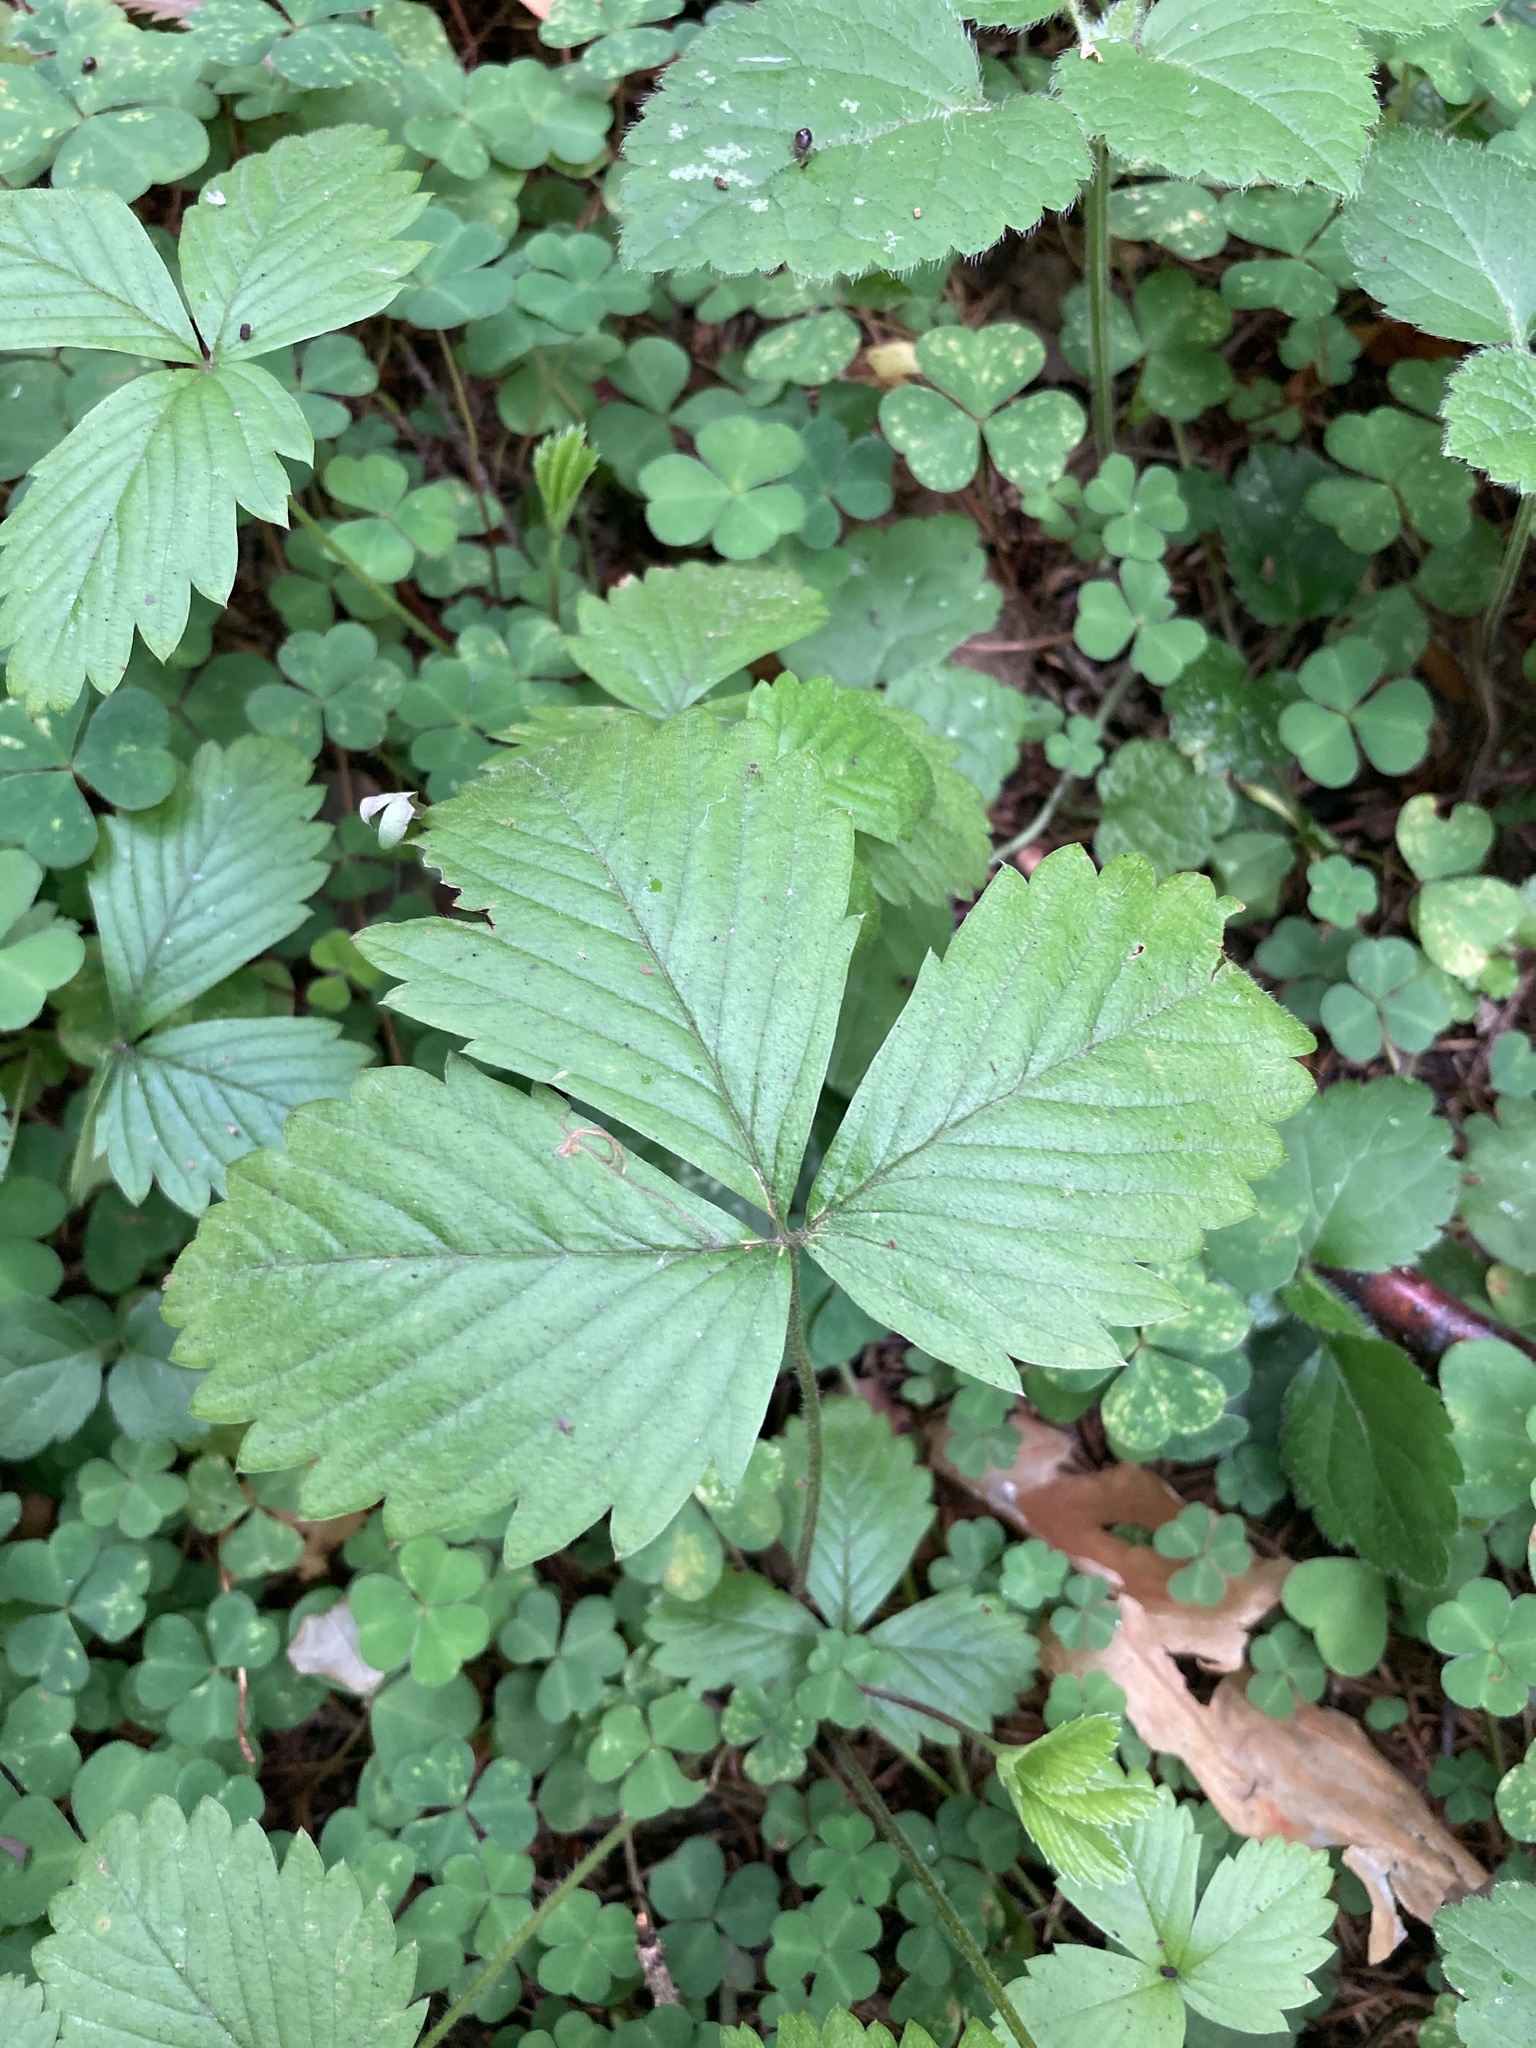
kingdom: Plantae
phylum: Tracheophyta
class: Magnoliopsida
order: Rosales
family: Rosaceae
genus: Fragaria
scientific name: Fragaria vesca
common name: Wild strawberry
